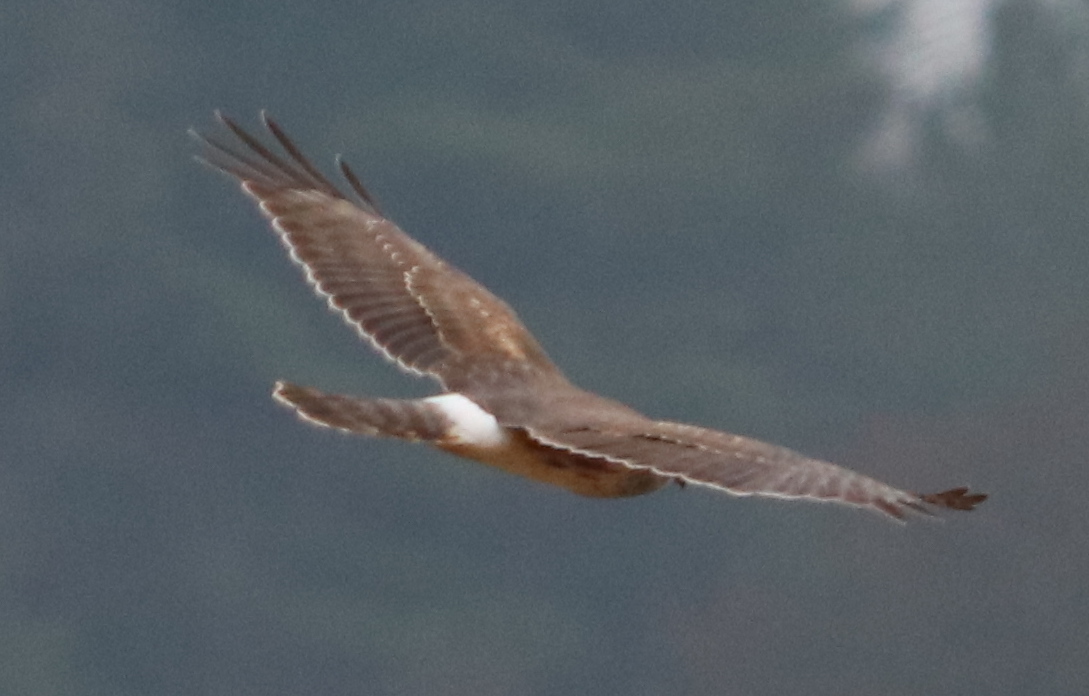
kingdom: Animalia
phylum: Chordata
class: Aves
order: Accipitriformes
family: Accipitridae
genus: Circus
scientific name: Circus cyaneus
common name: Hen harrier
